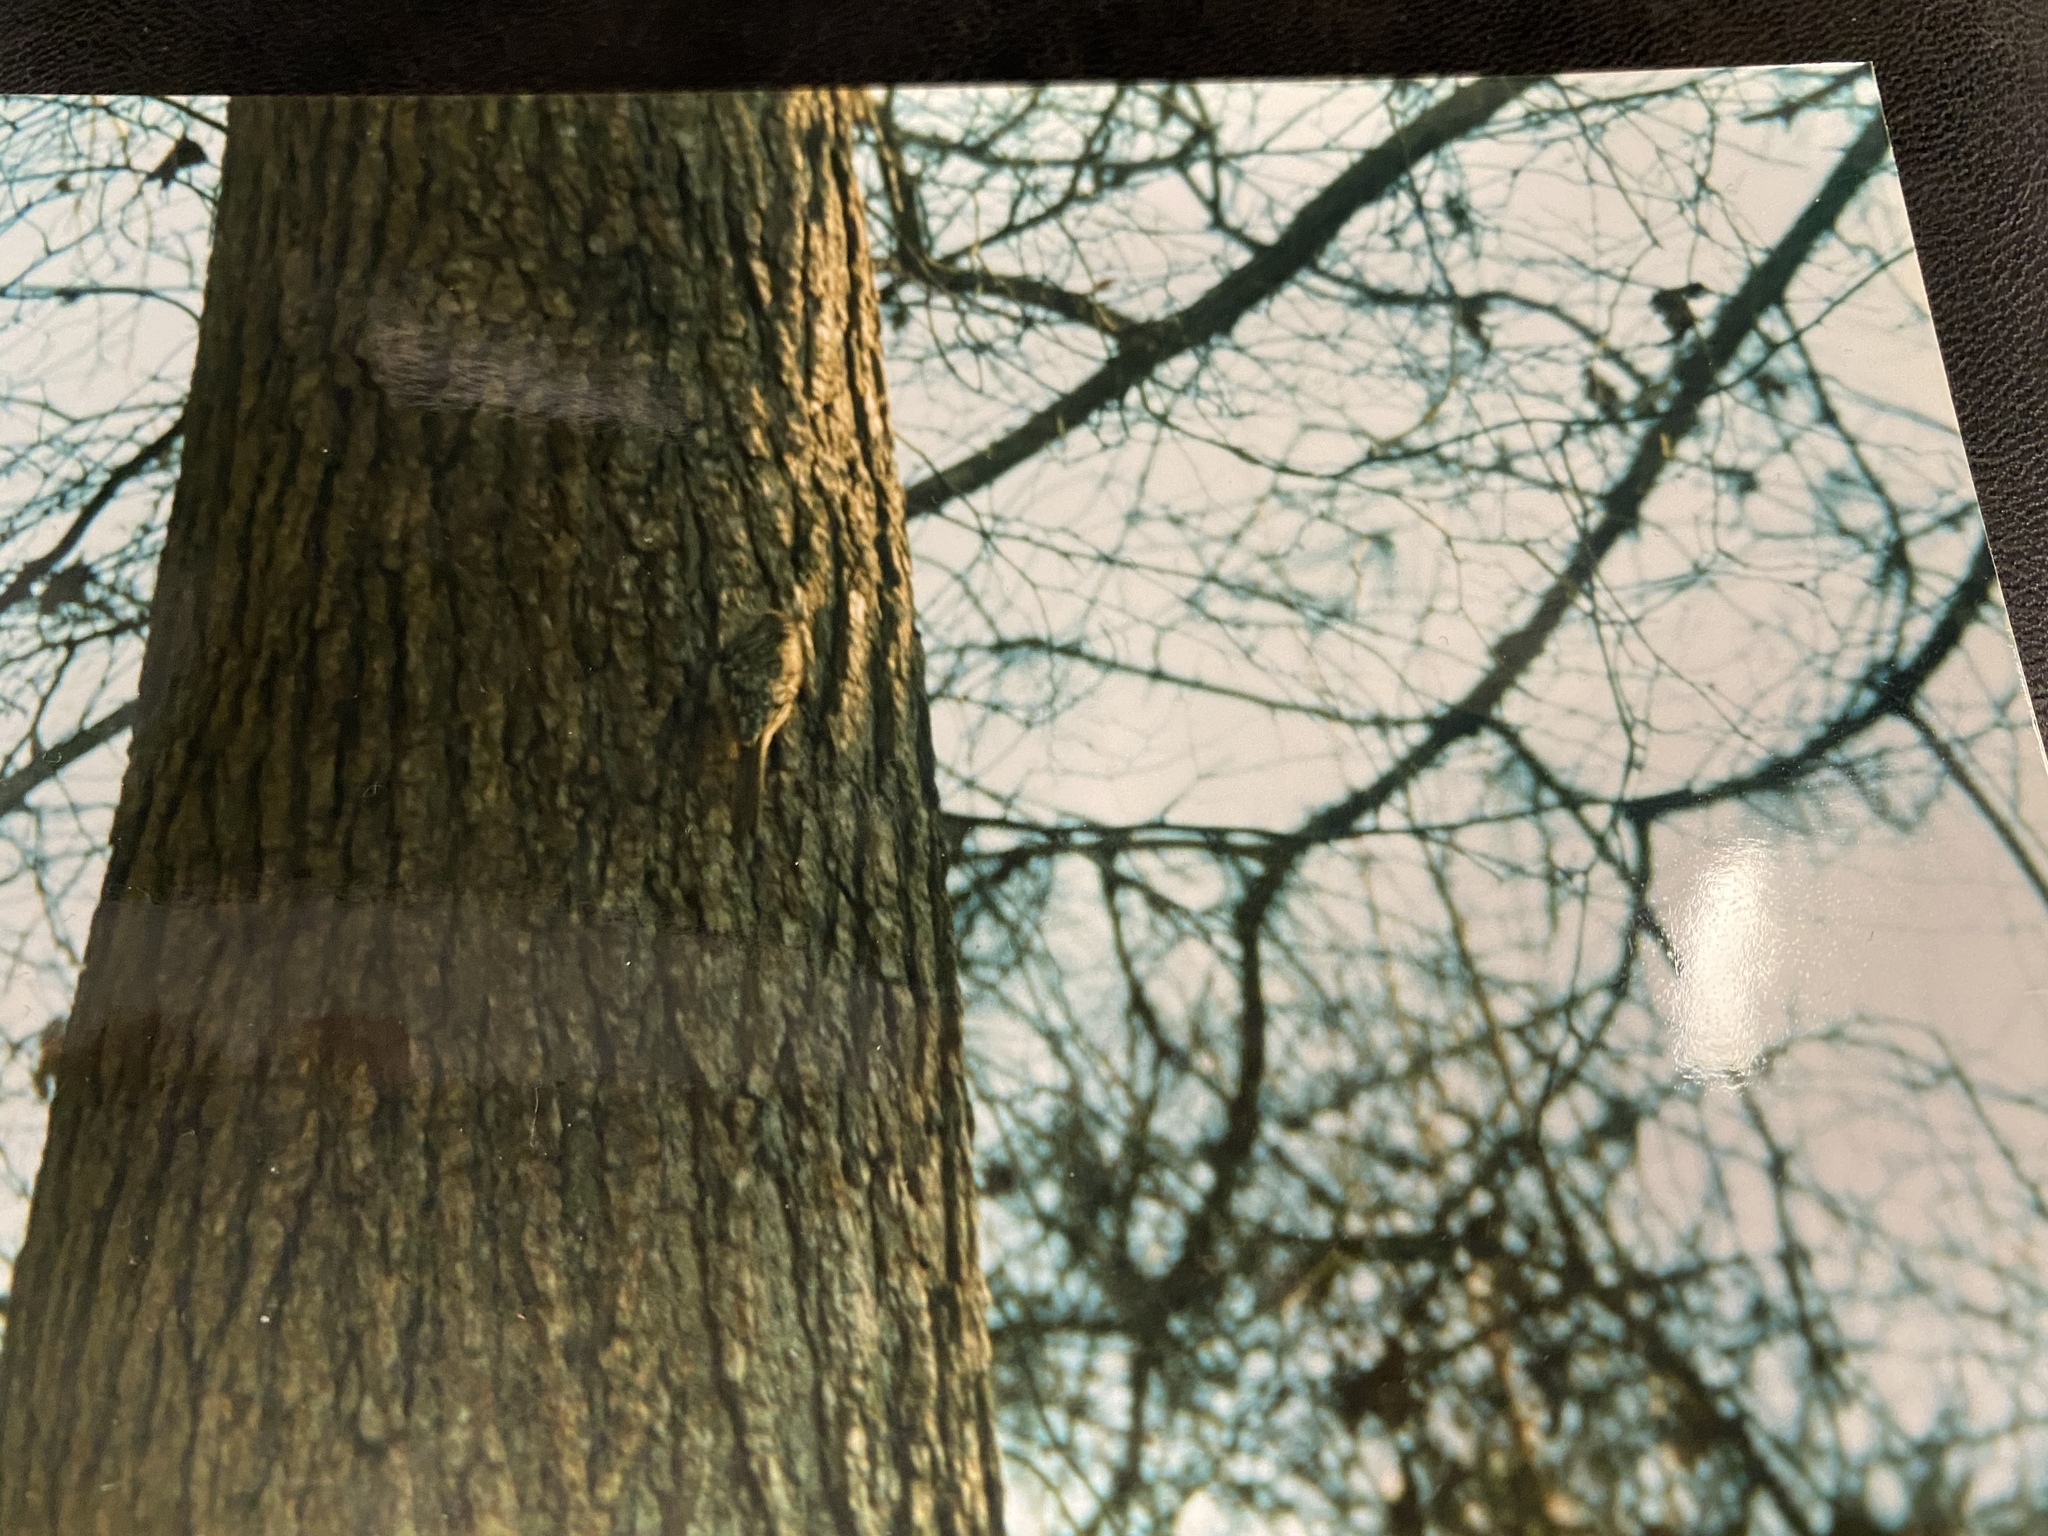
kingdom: Animalia
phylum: Chordata
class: Aves
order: Passeriformes
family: Certhiidae
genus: Certhia
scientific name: Certhia americana
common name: Brown creeper
